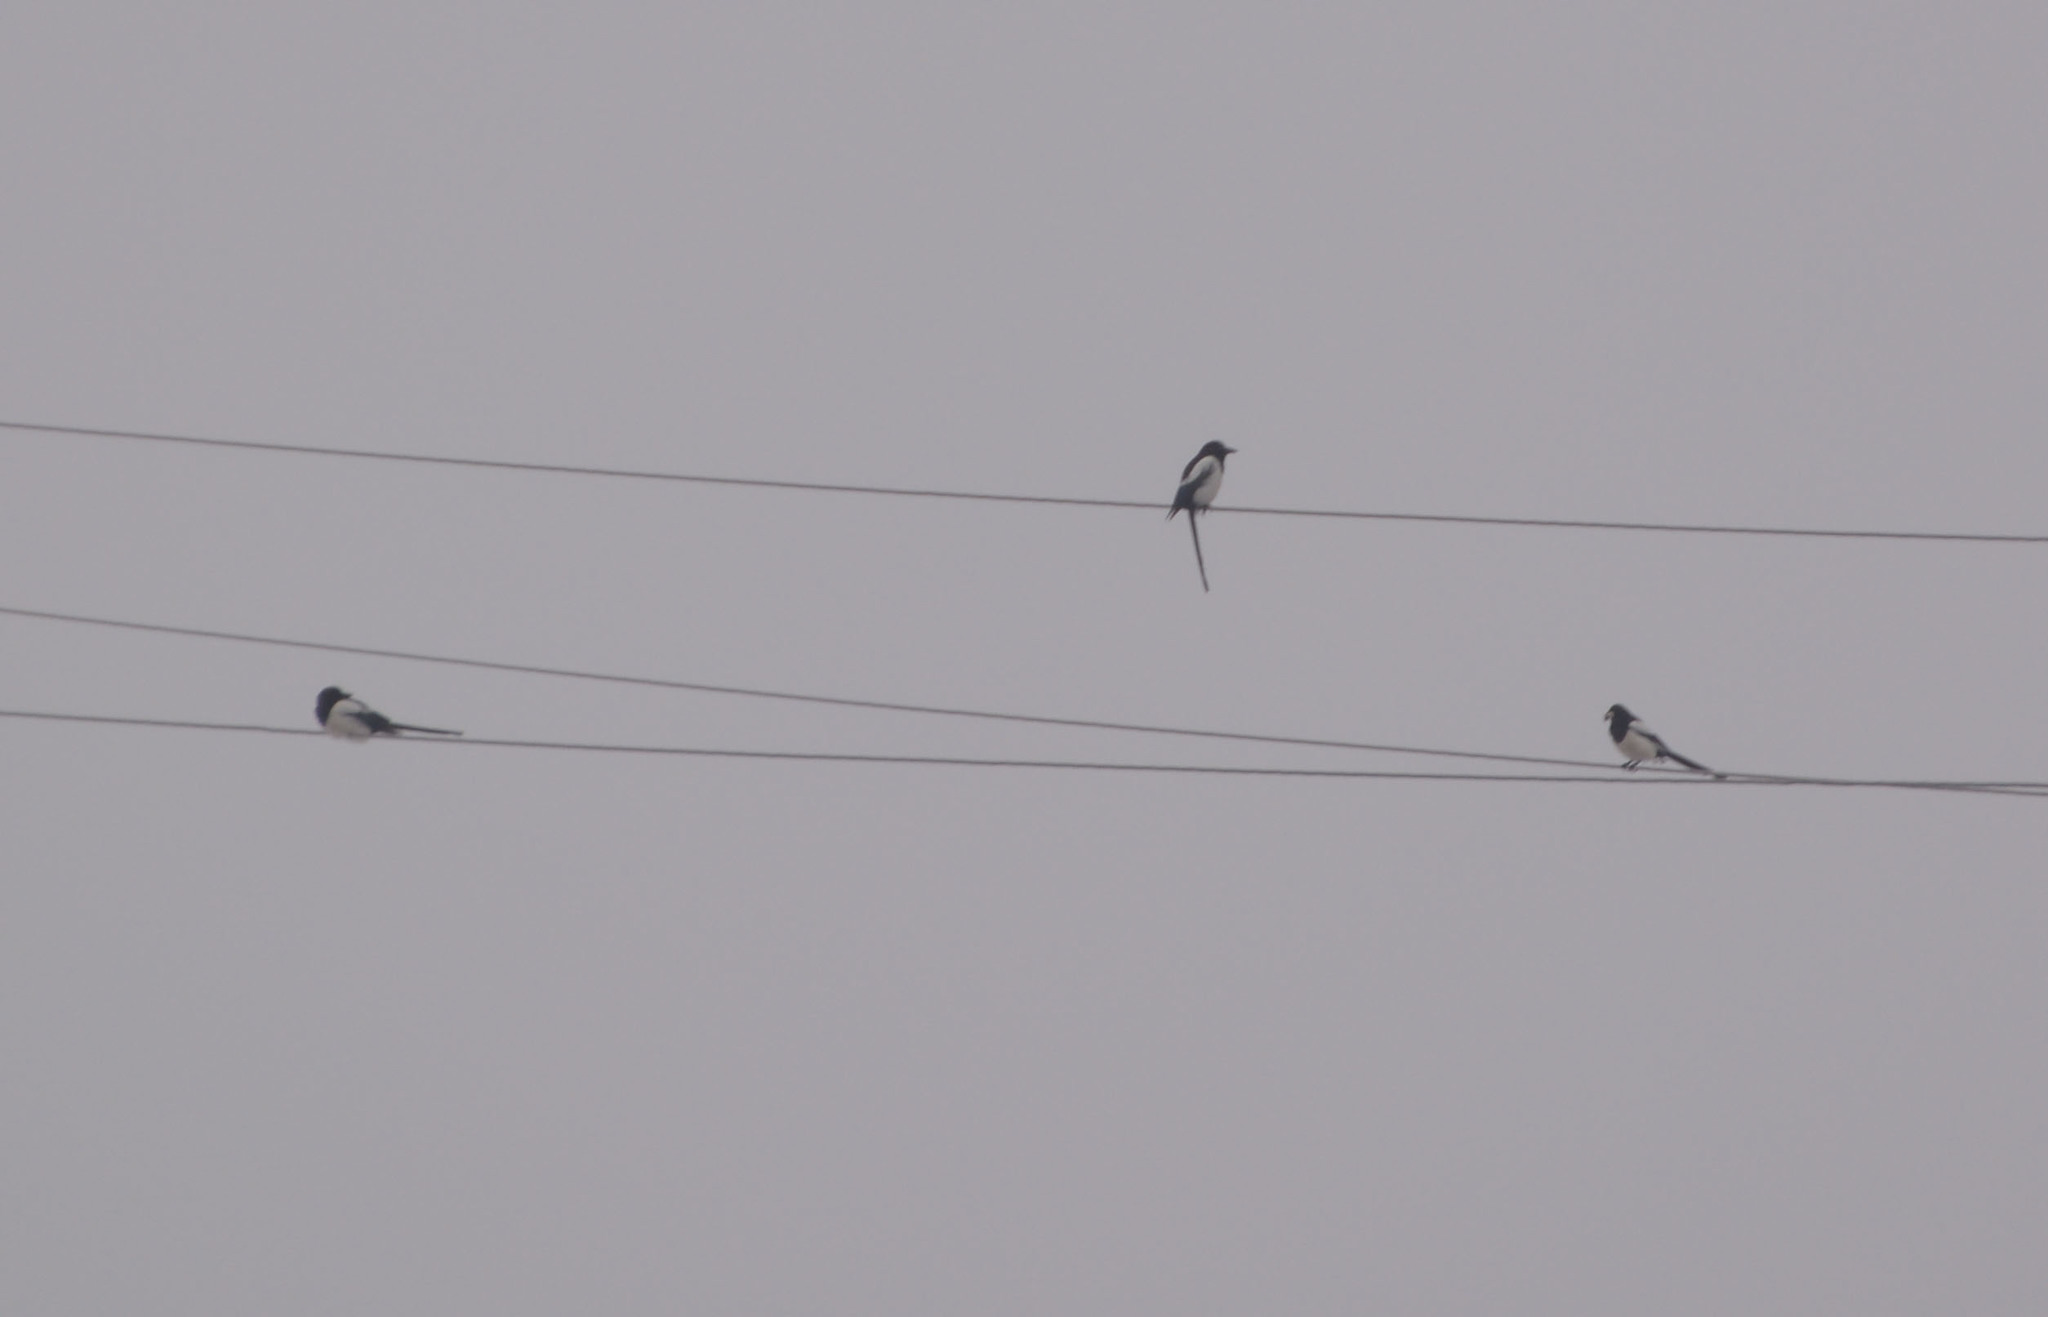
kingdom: Animalia
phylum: Chordata
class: Aves
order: Passeriformes
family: Corvidae
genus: Pica
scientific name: Pica pica
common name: Eurasian magpie
